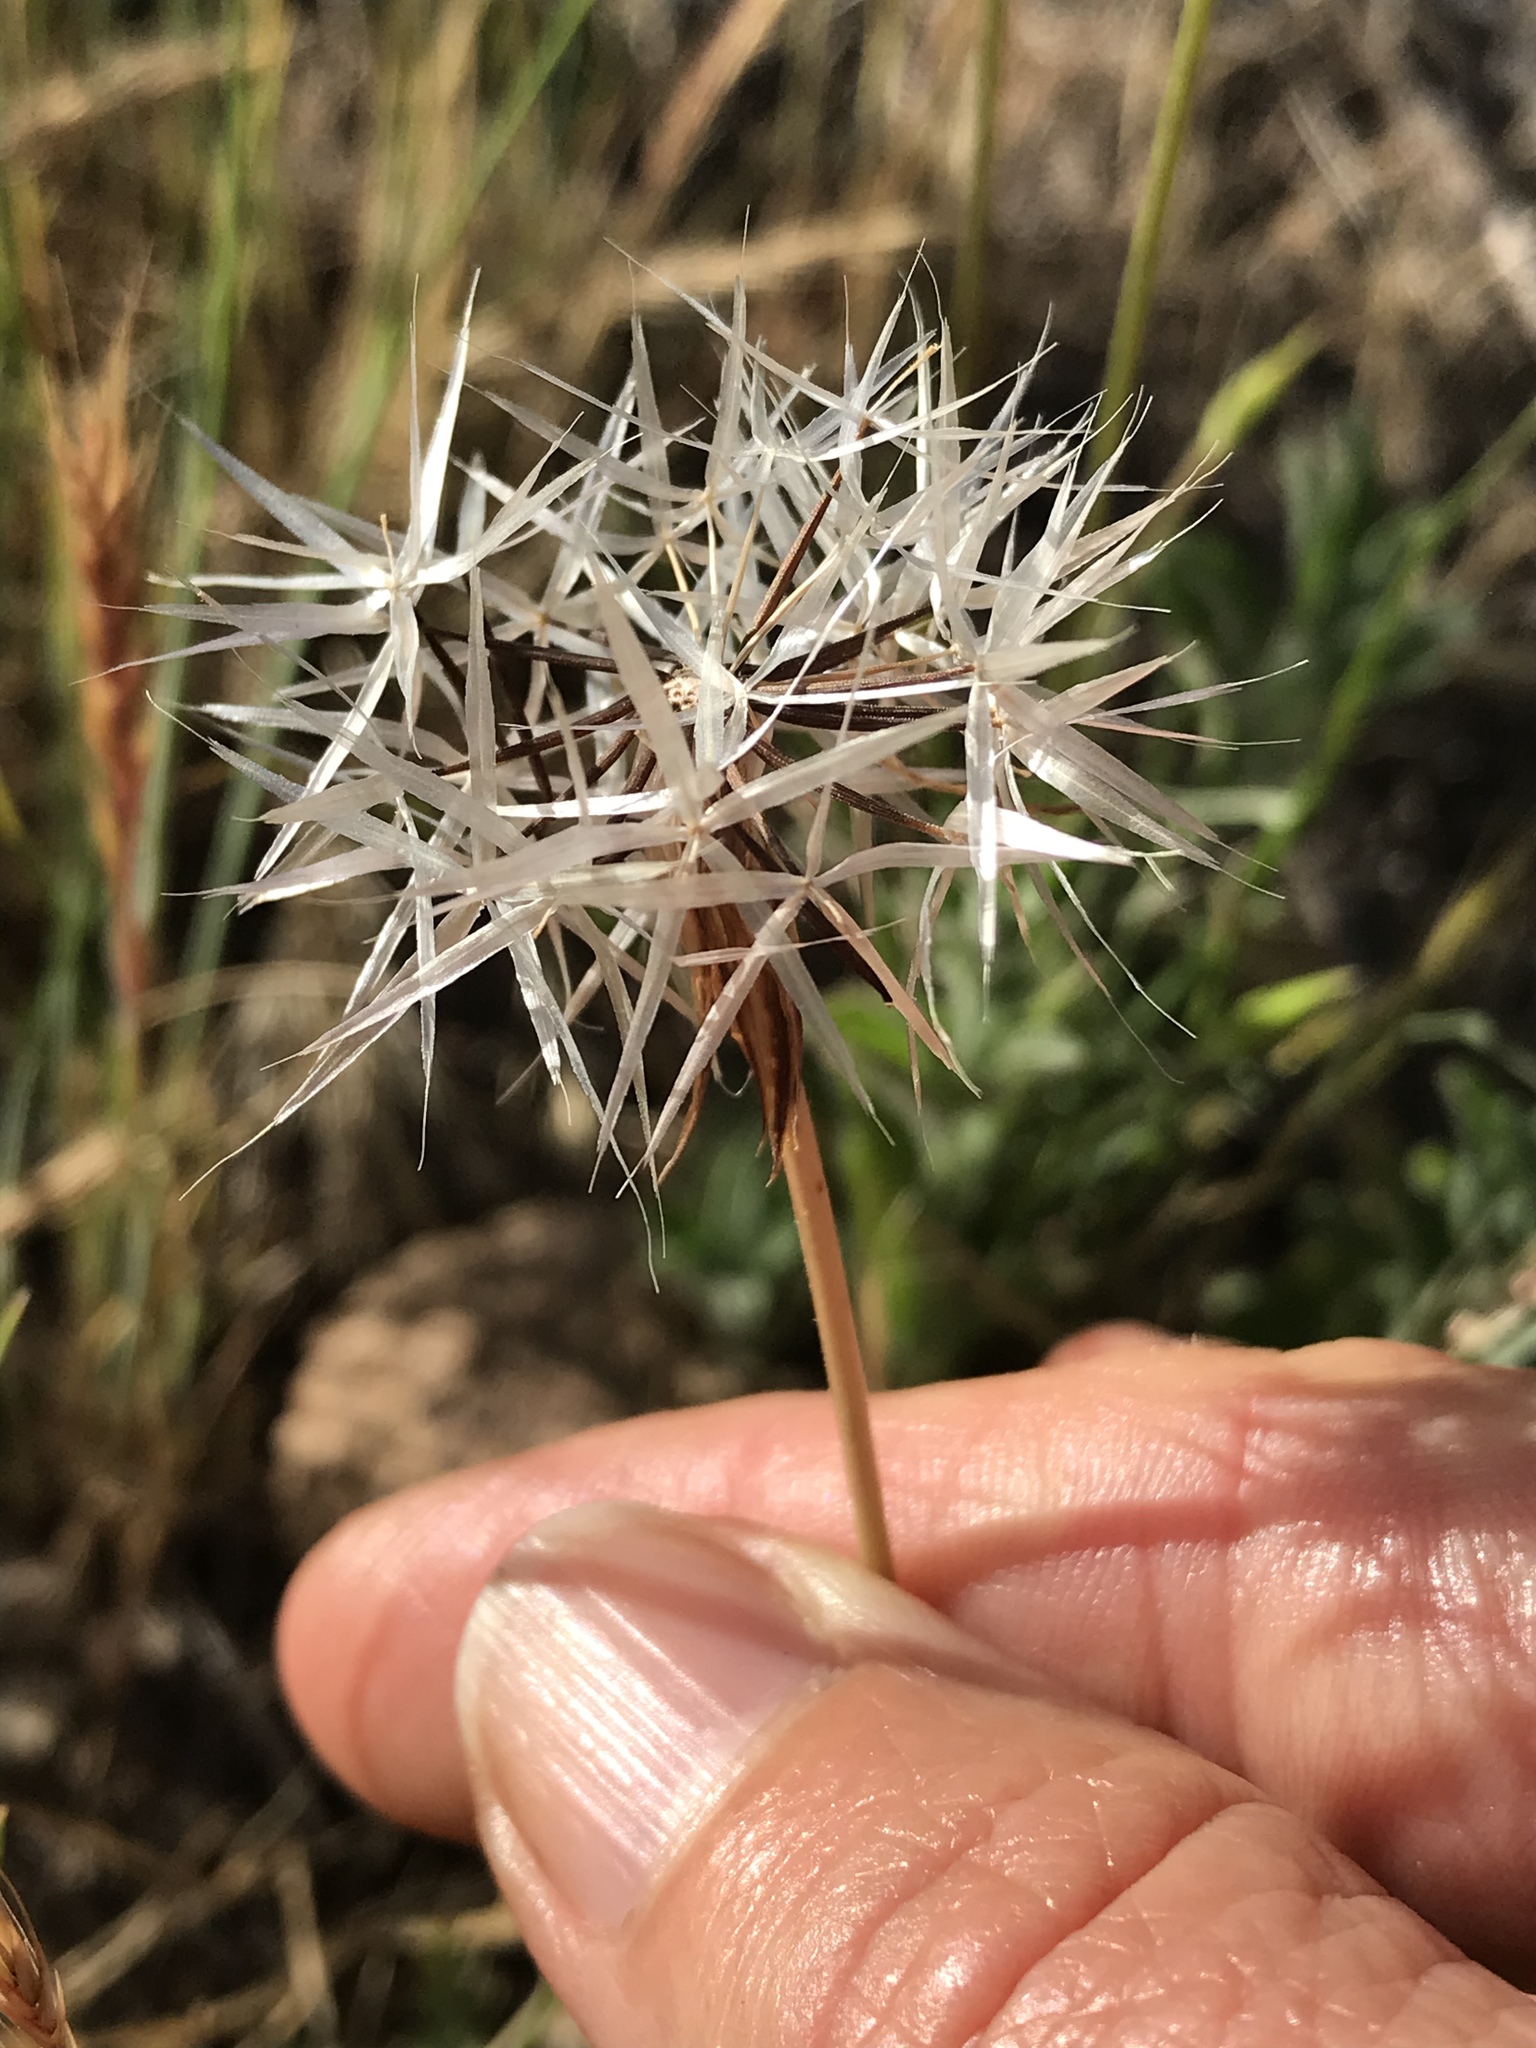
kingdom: Plantae
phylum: Tracheophyta
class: Magnoliopsida
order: Asterales
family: Asteraceae
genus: Microseris
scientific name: Microseris lindleyi
